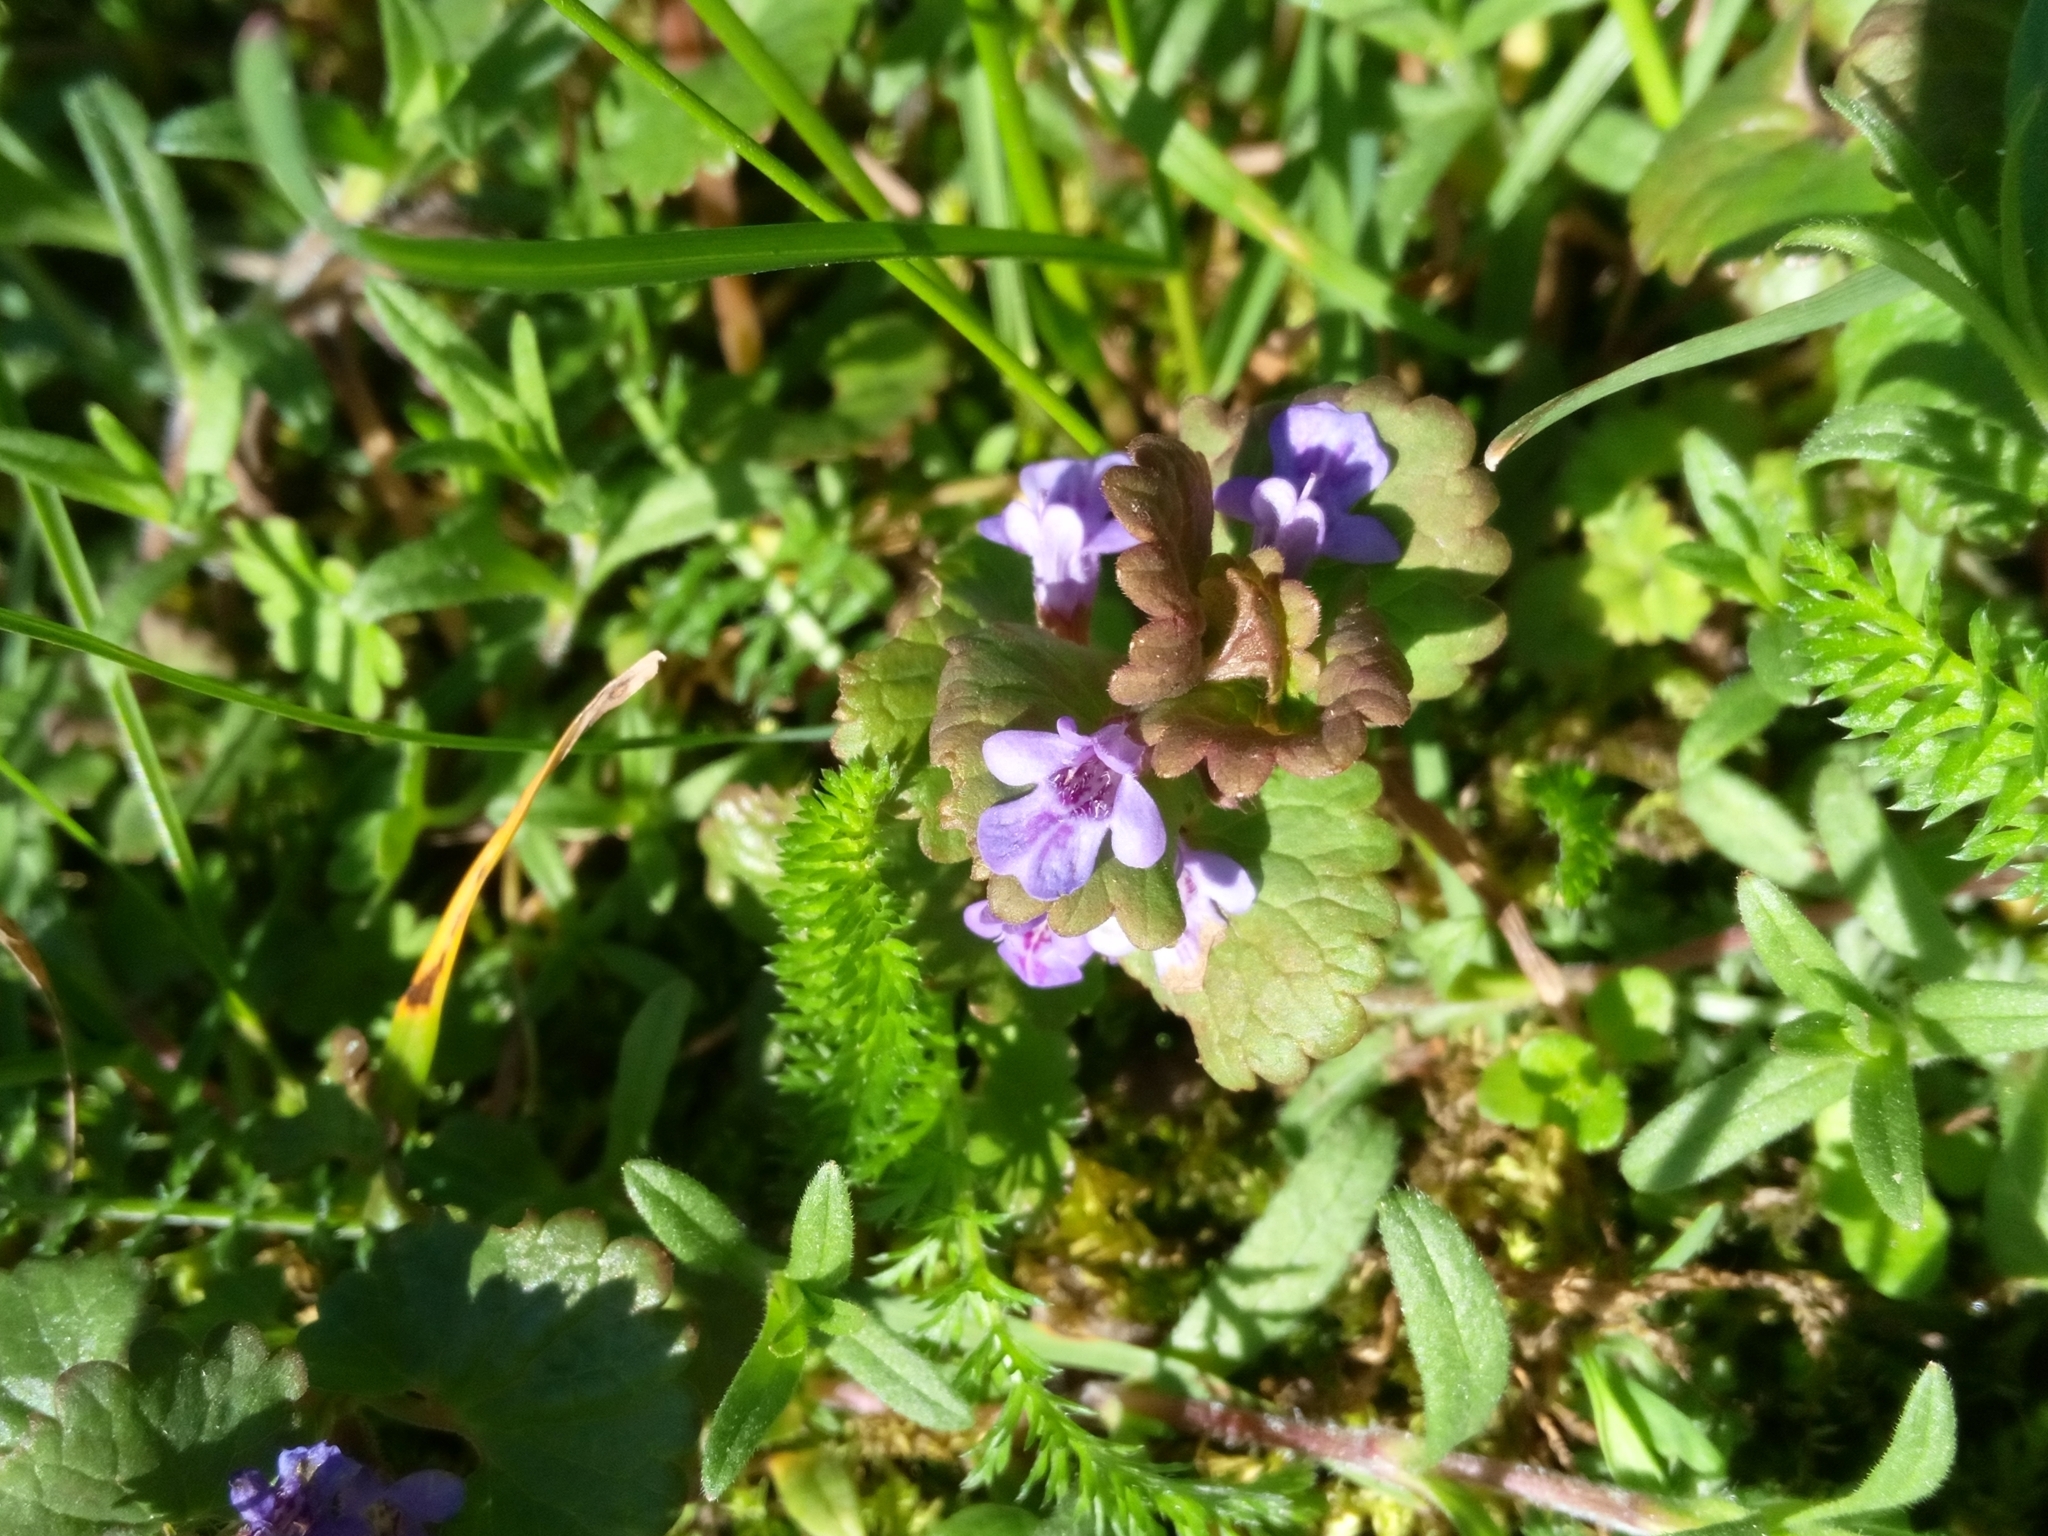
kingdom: Plantae
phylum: Tracheophyta
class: Magnoliopsida
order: Lamiales
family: Lamiaceae
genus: Glechoma
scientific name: Glechoma hederacea
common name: Ground ivy
